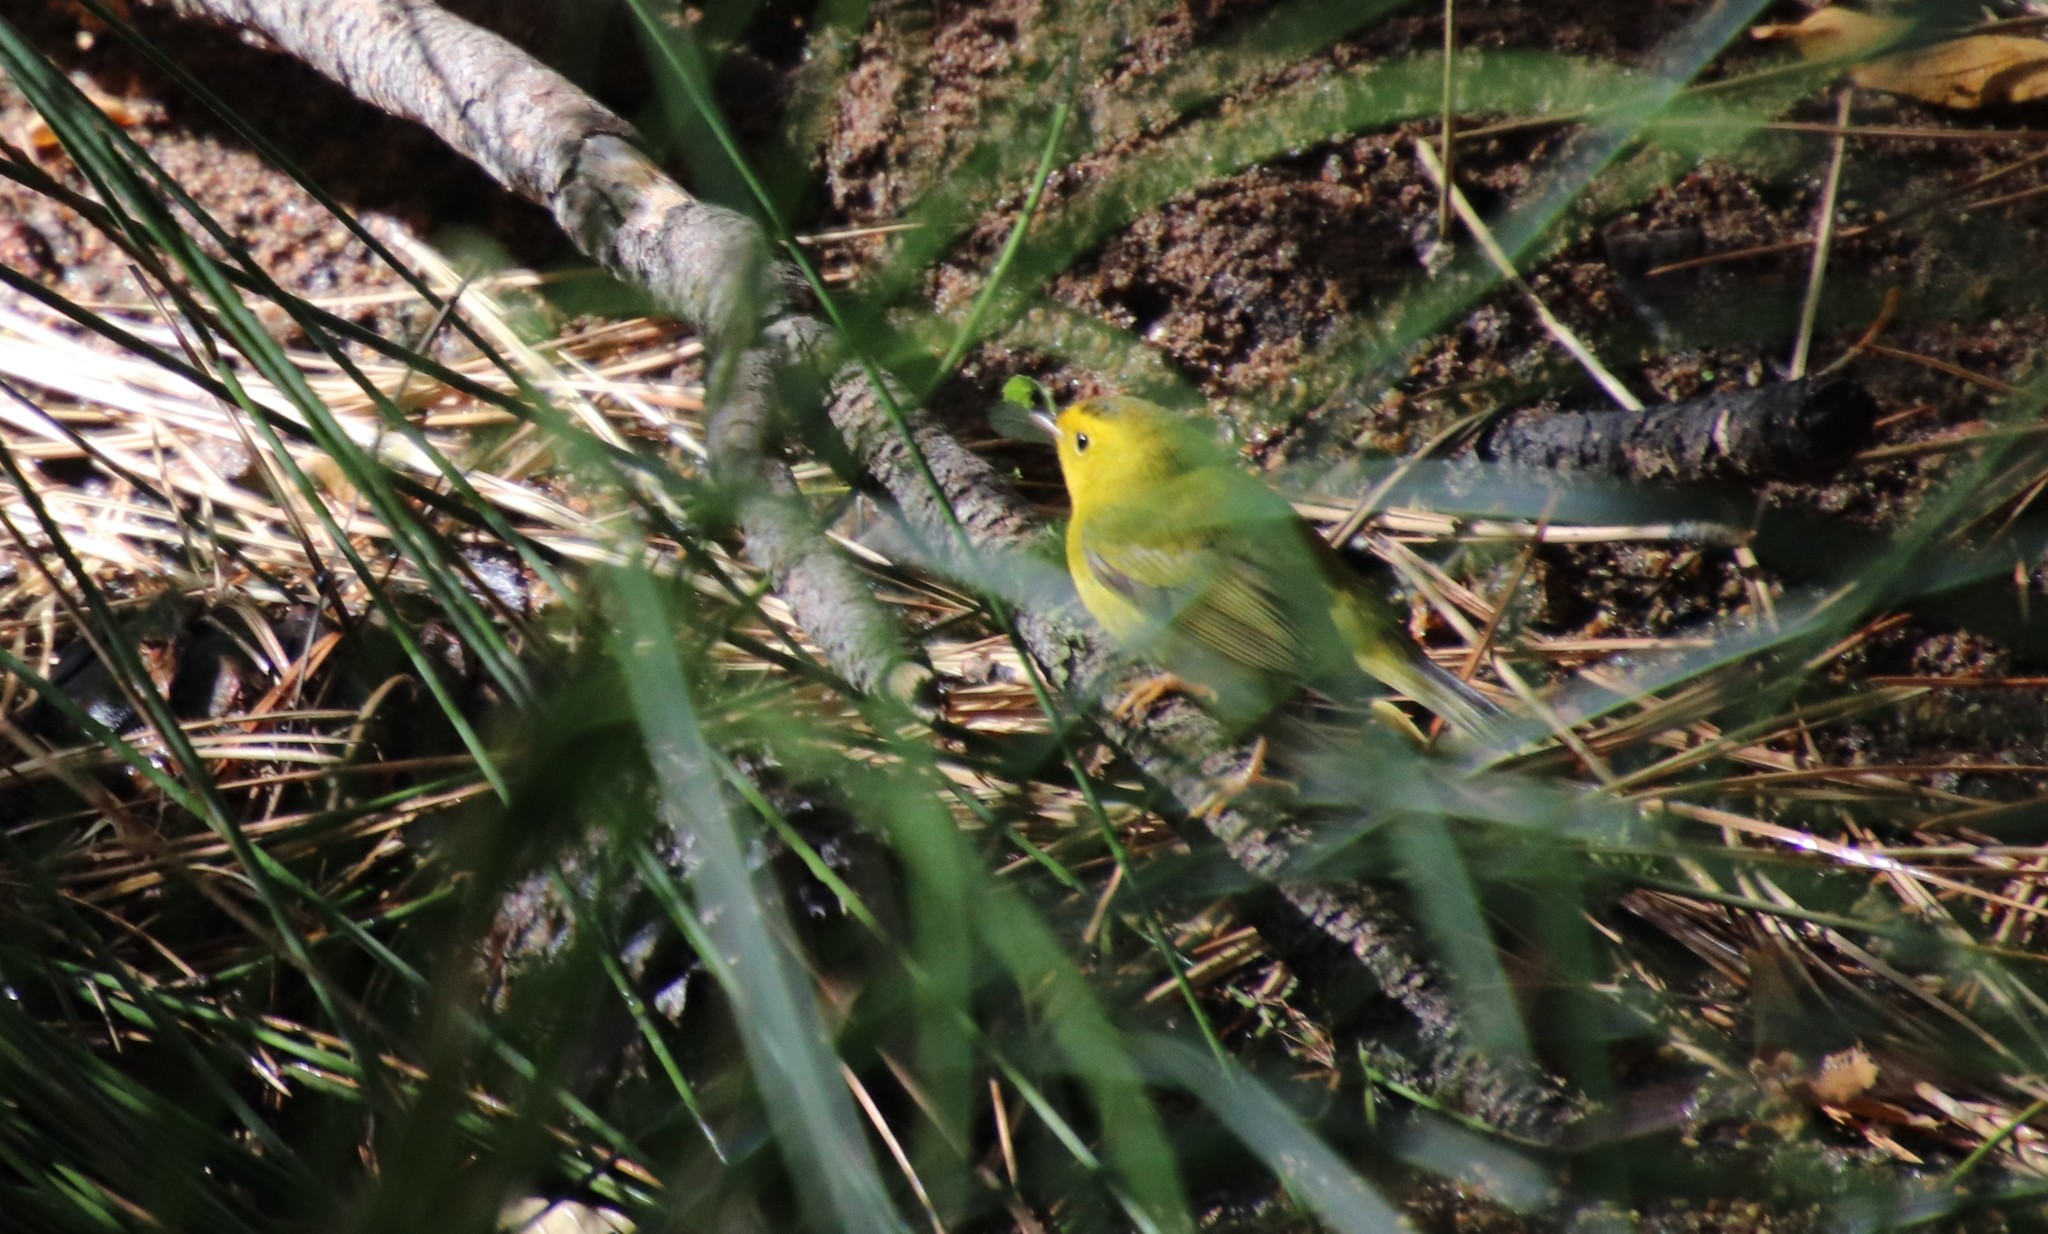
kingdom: Animalia
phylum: Chordata
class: Aves
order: Passeriformes
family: Parulidae
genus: Cardellina
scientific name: Cardellina pusilla
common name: Wilson's warbler
